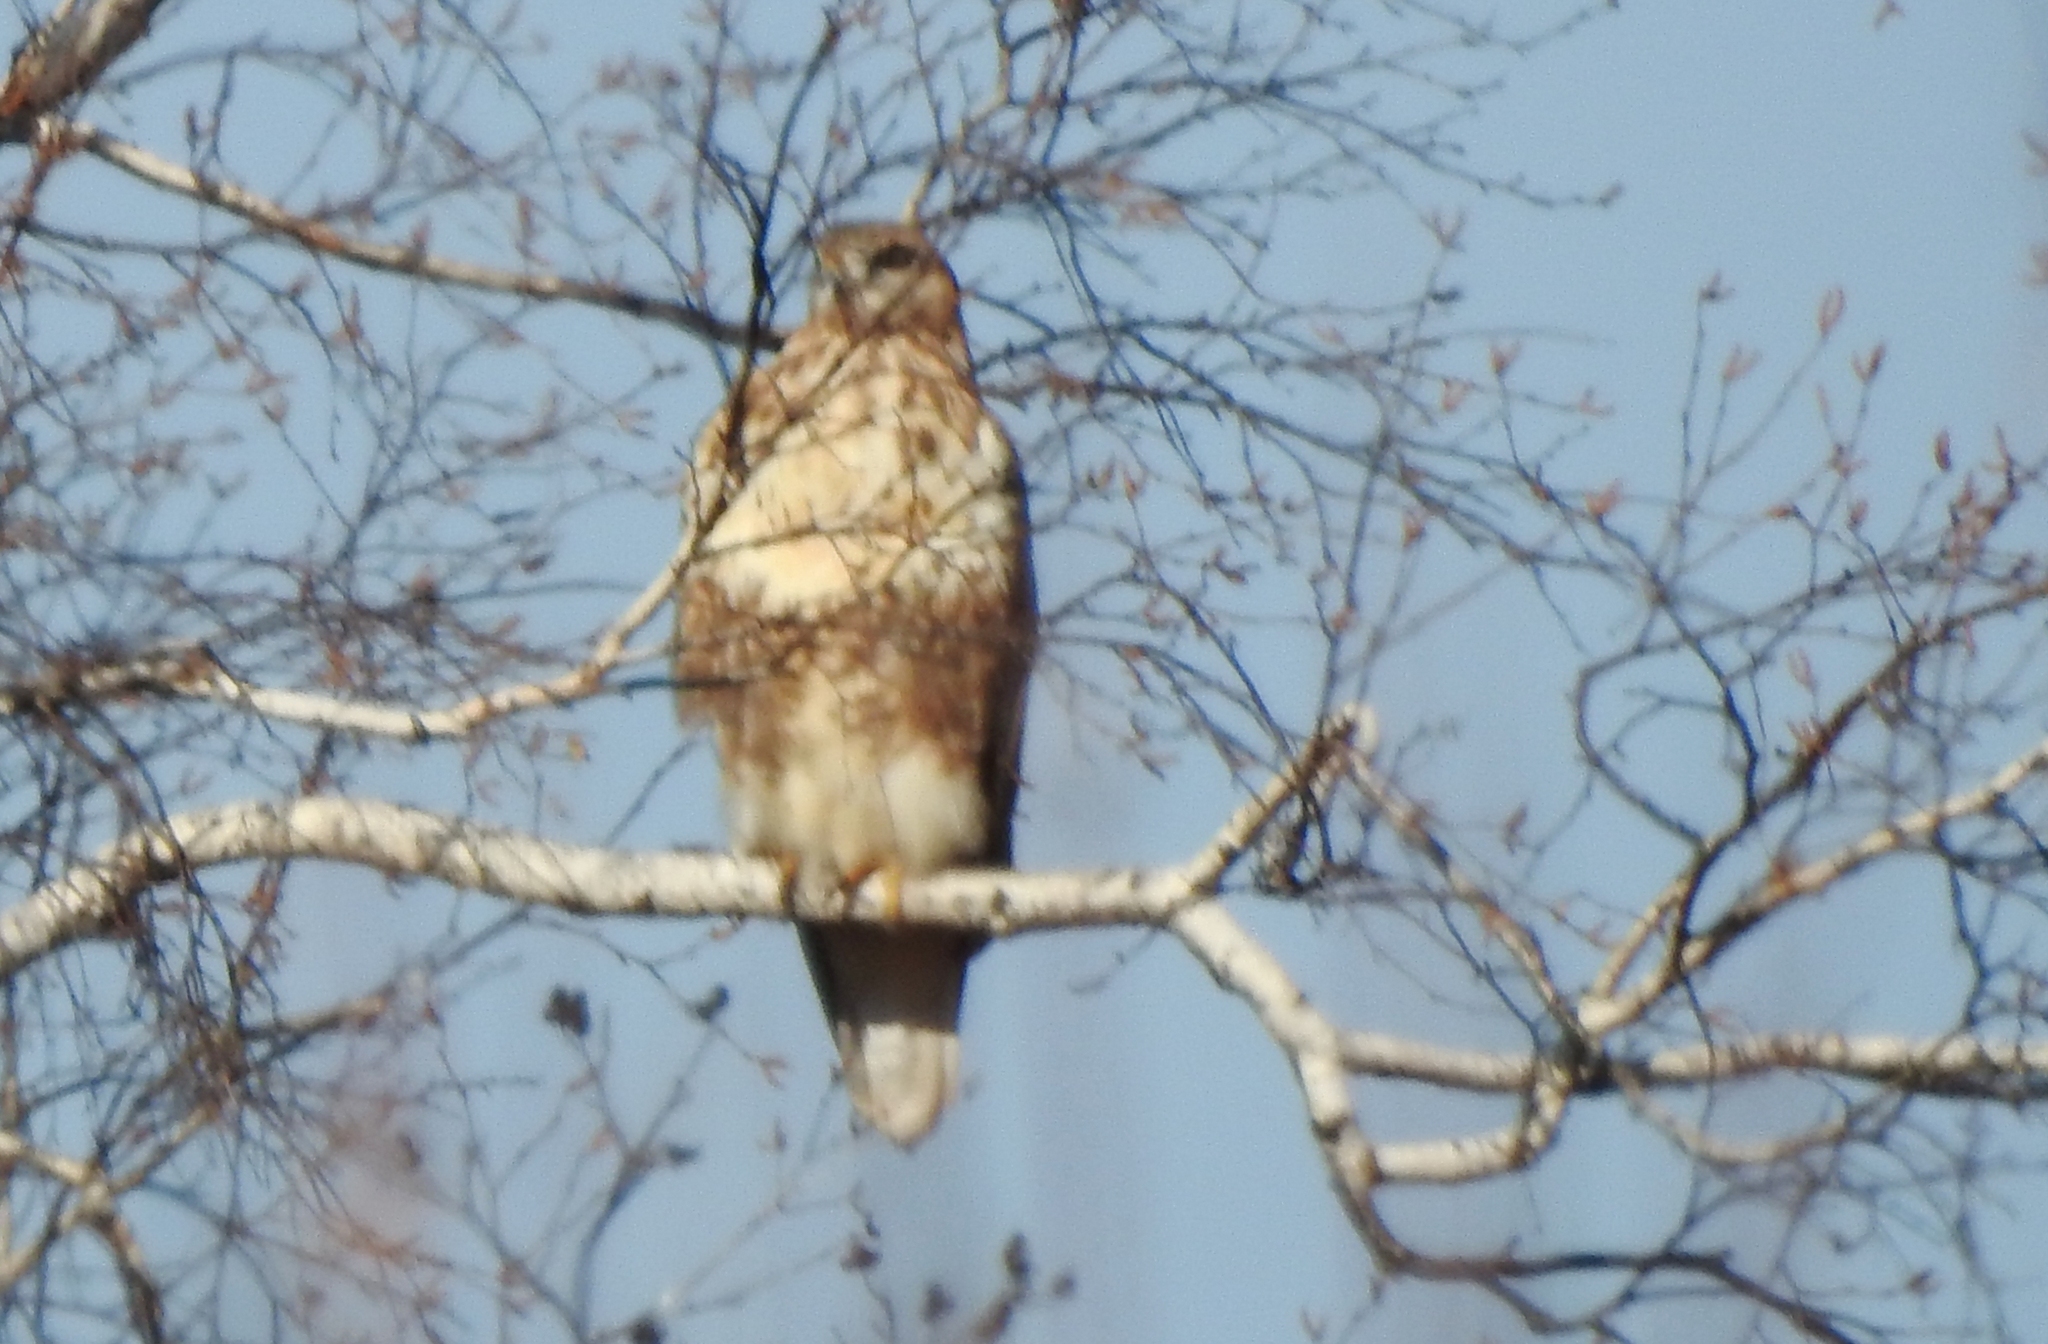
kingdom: Animalia
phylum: Chordata
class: Aves
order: Accipitriformes
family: Accipitridae
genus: Buteo
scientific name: Buteo japonicus
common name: Eastern buzzard
